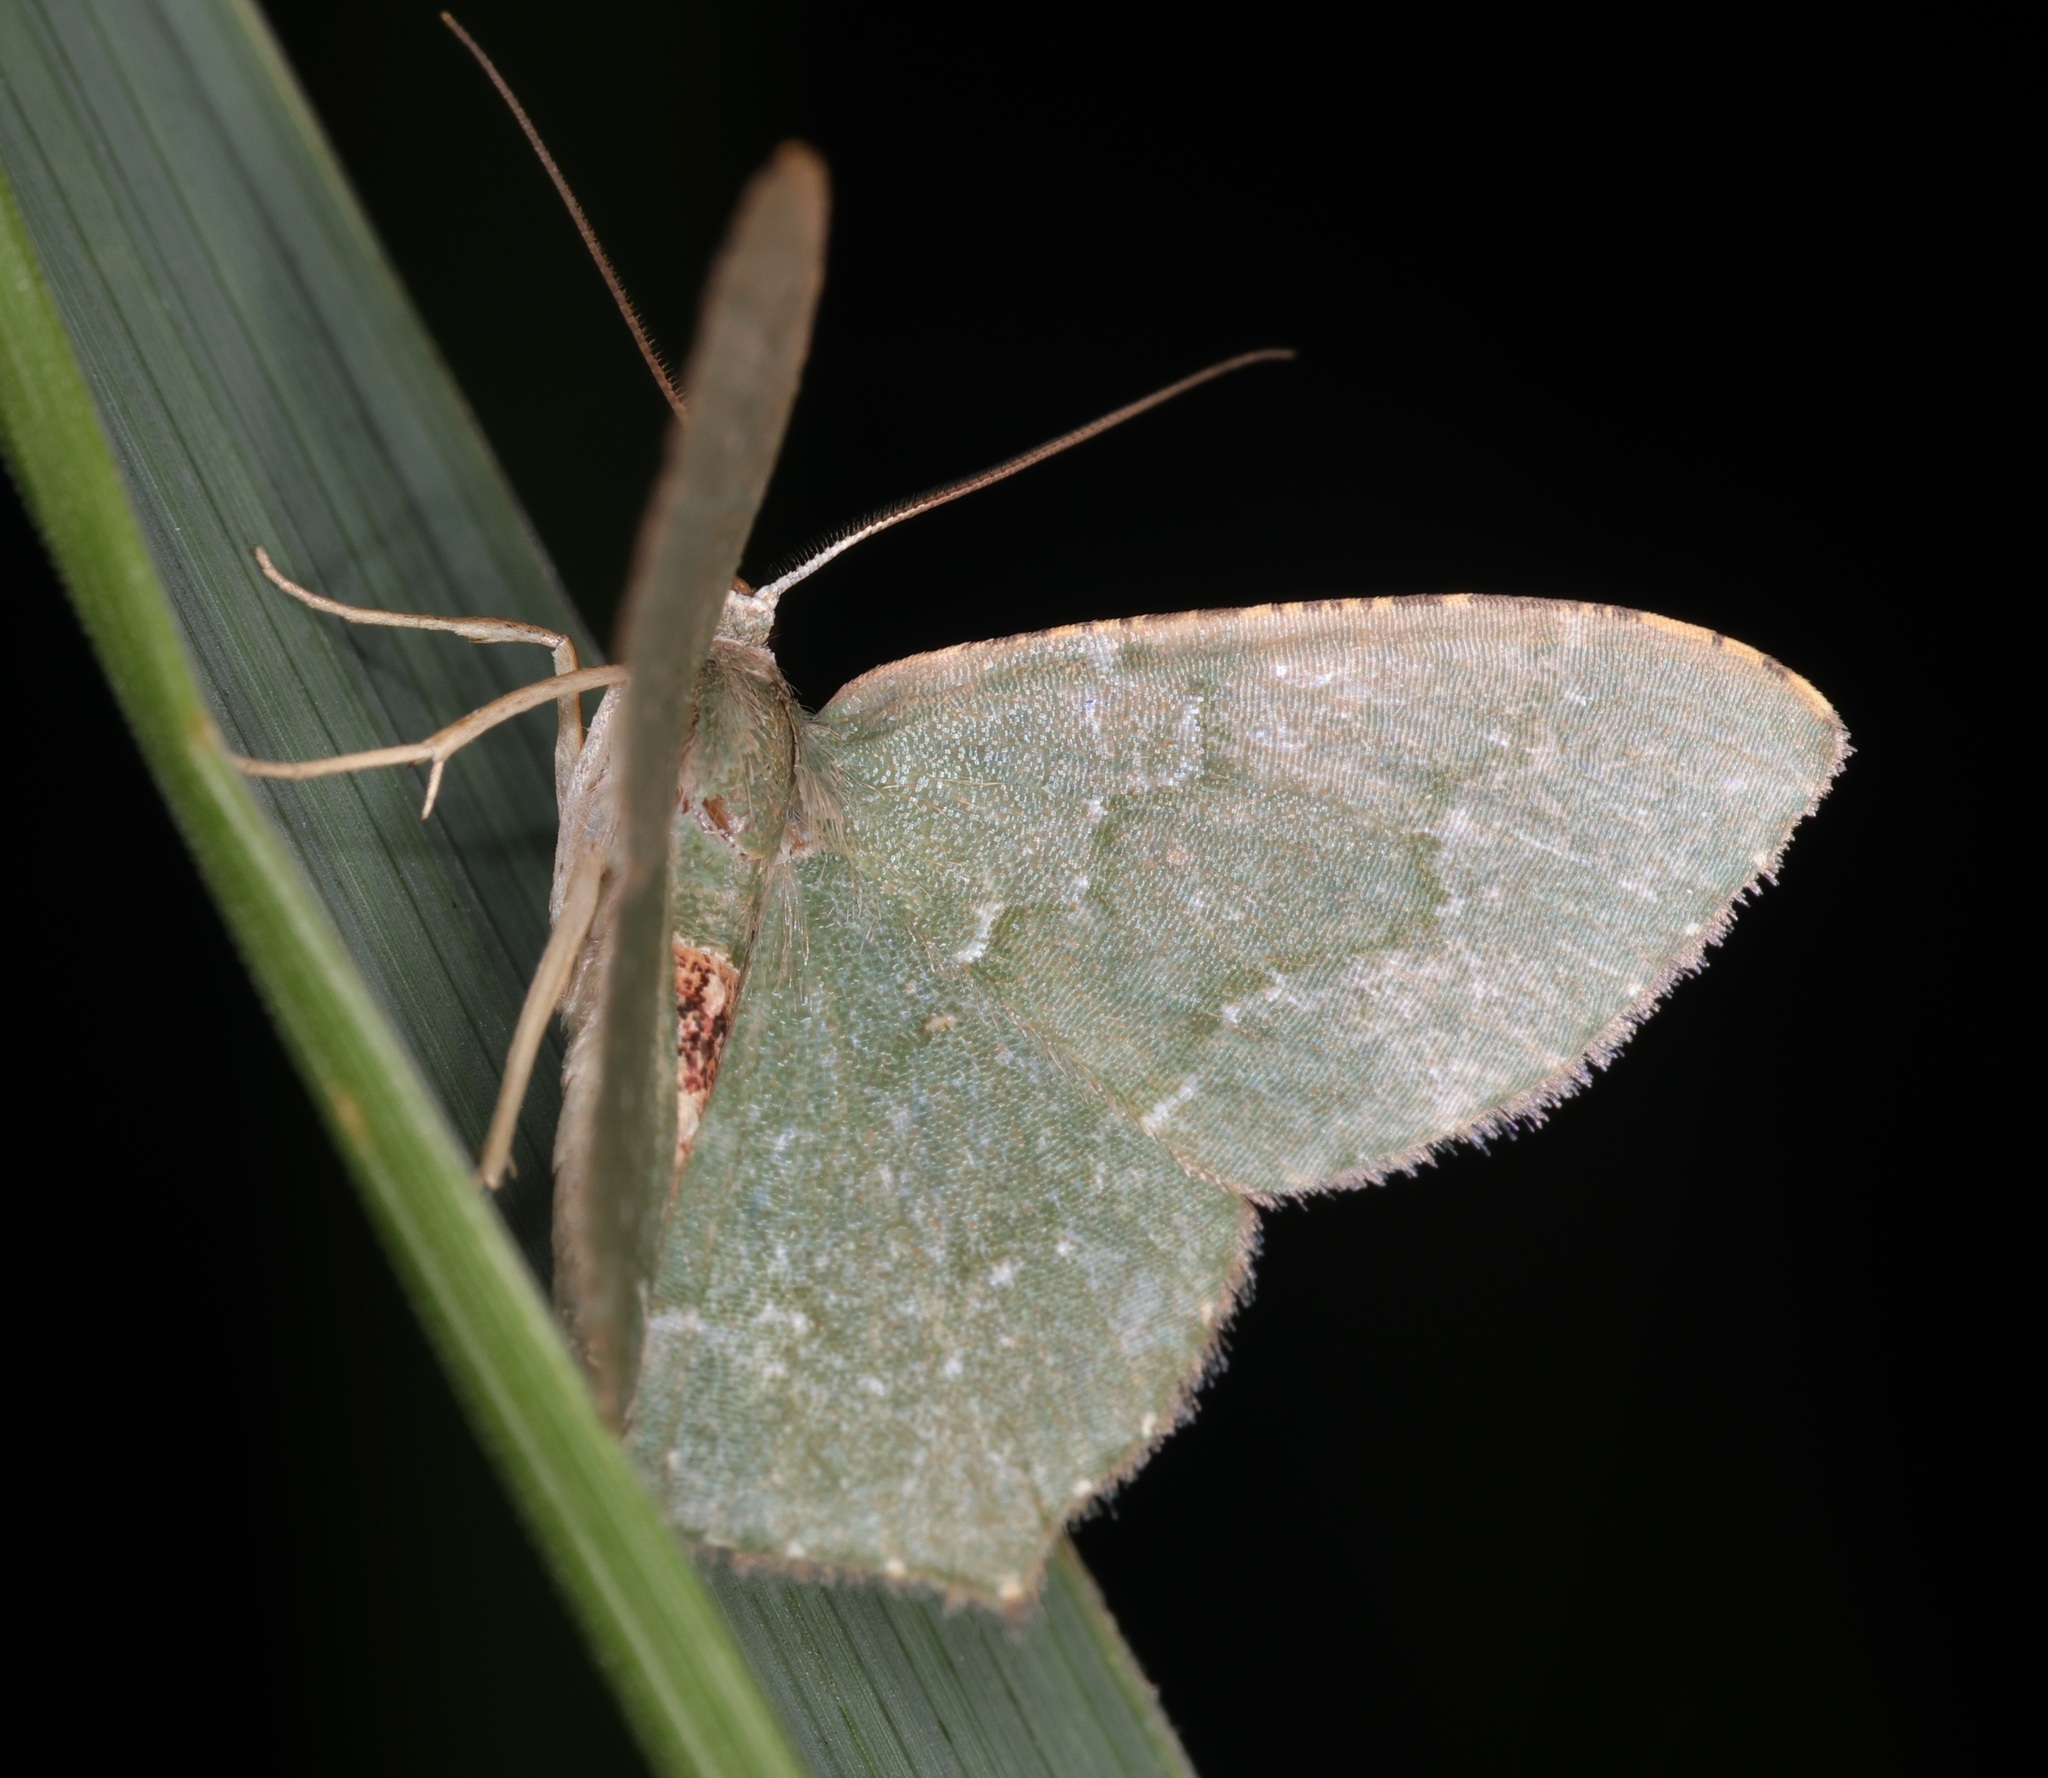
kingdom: Animalia
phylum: Arthropoda
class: Insecta
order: Lepidoptera
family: Geometridae
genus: Hemithea
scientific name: Hemithea marina
